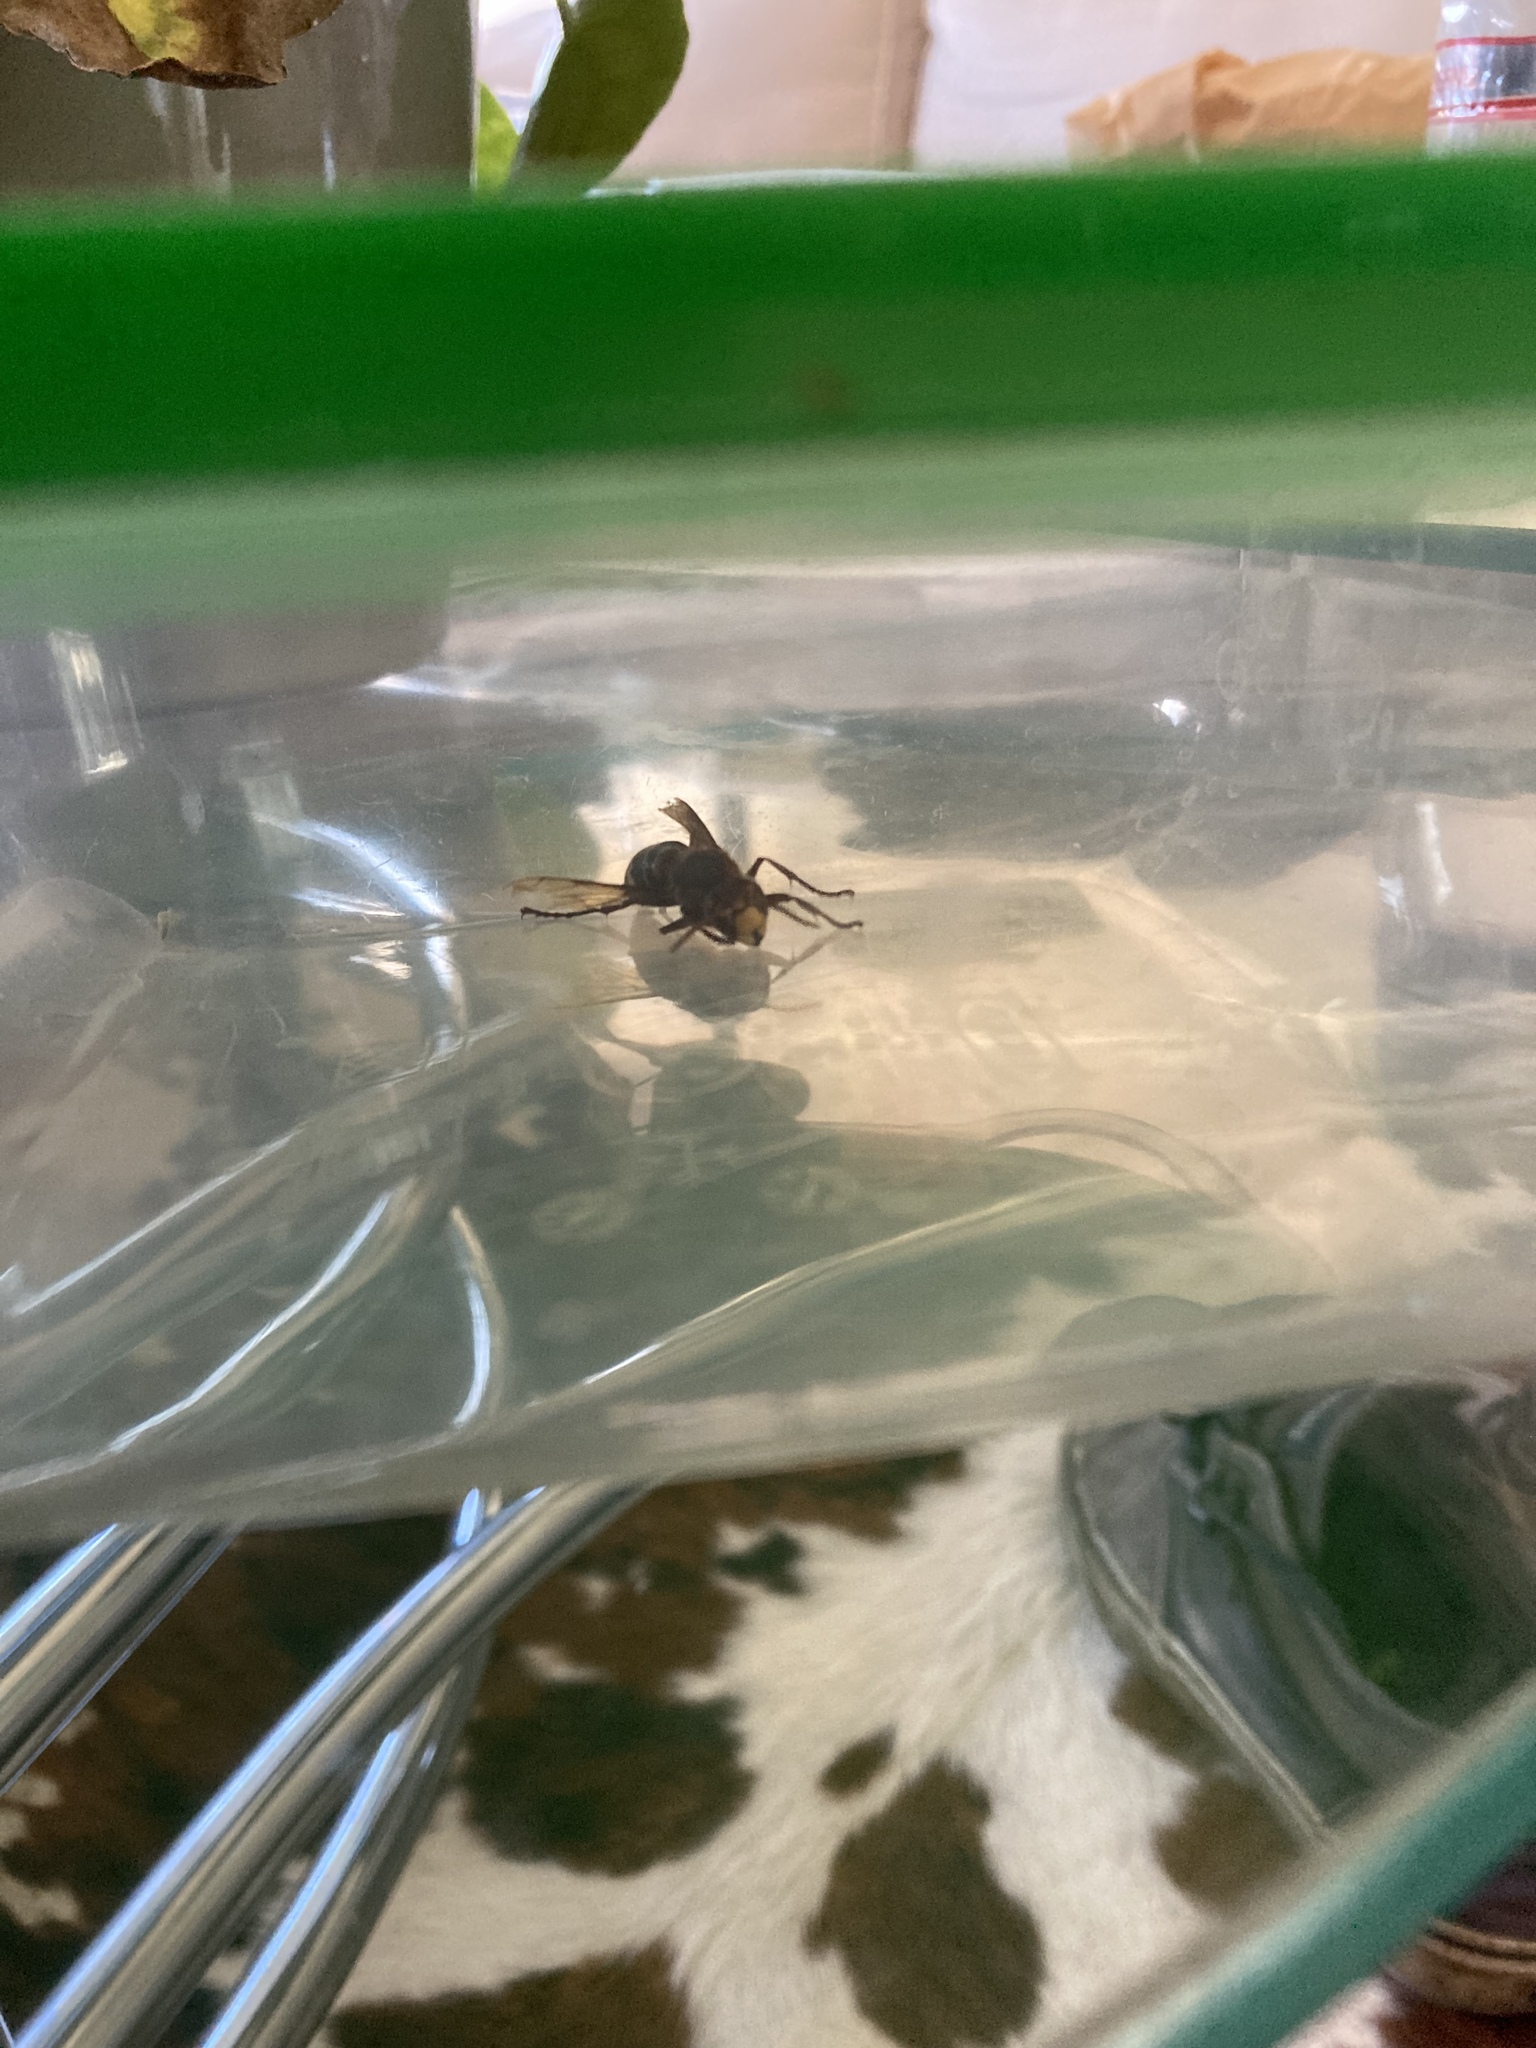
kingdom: Animalia
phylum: Arthropoda
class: Insecta
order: Hymenoptera
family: Vespidae
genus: Vespa
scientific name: Vespa crabro
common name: Hornet
